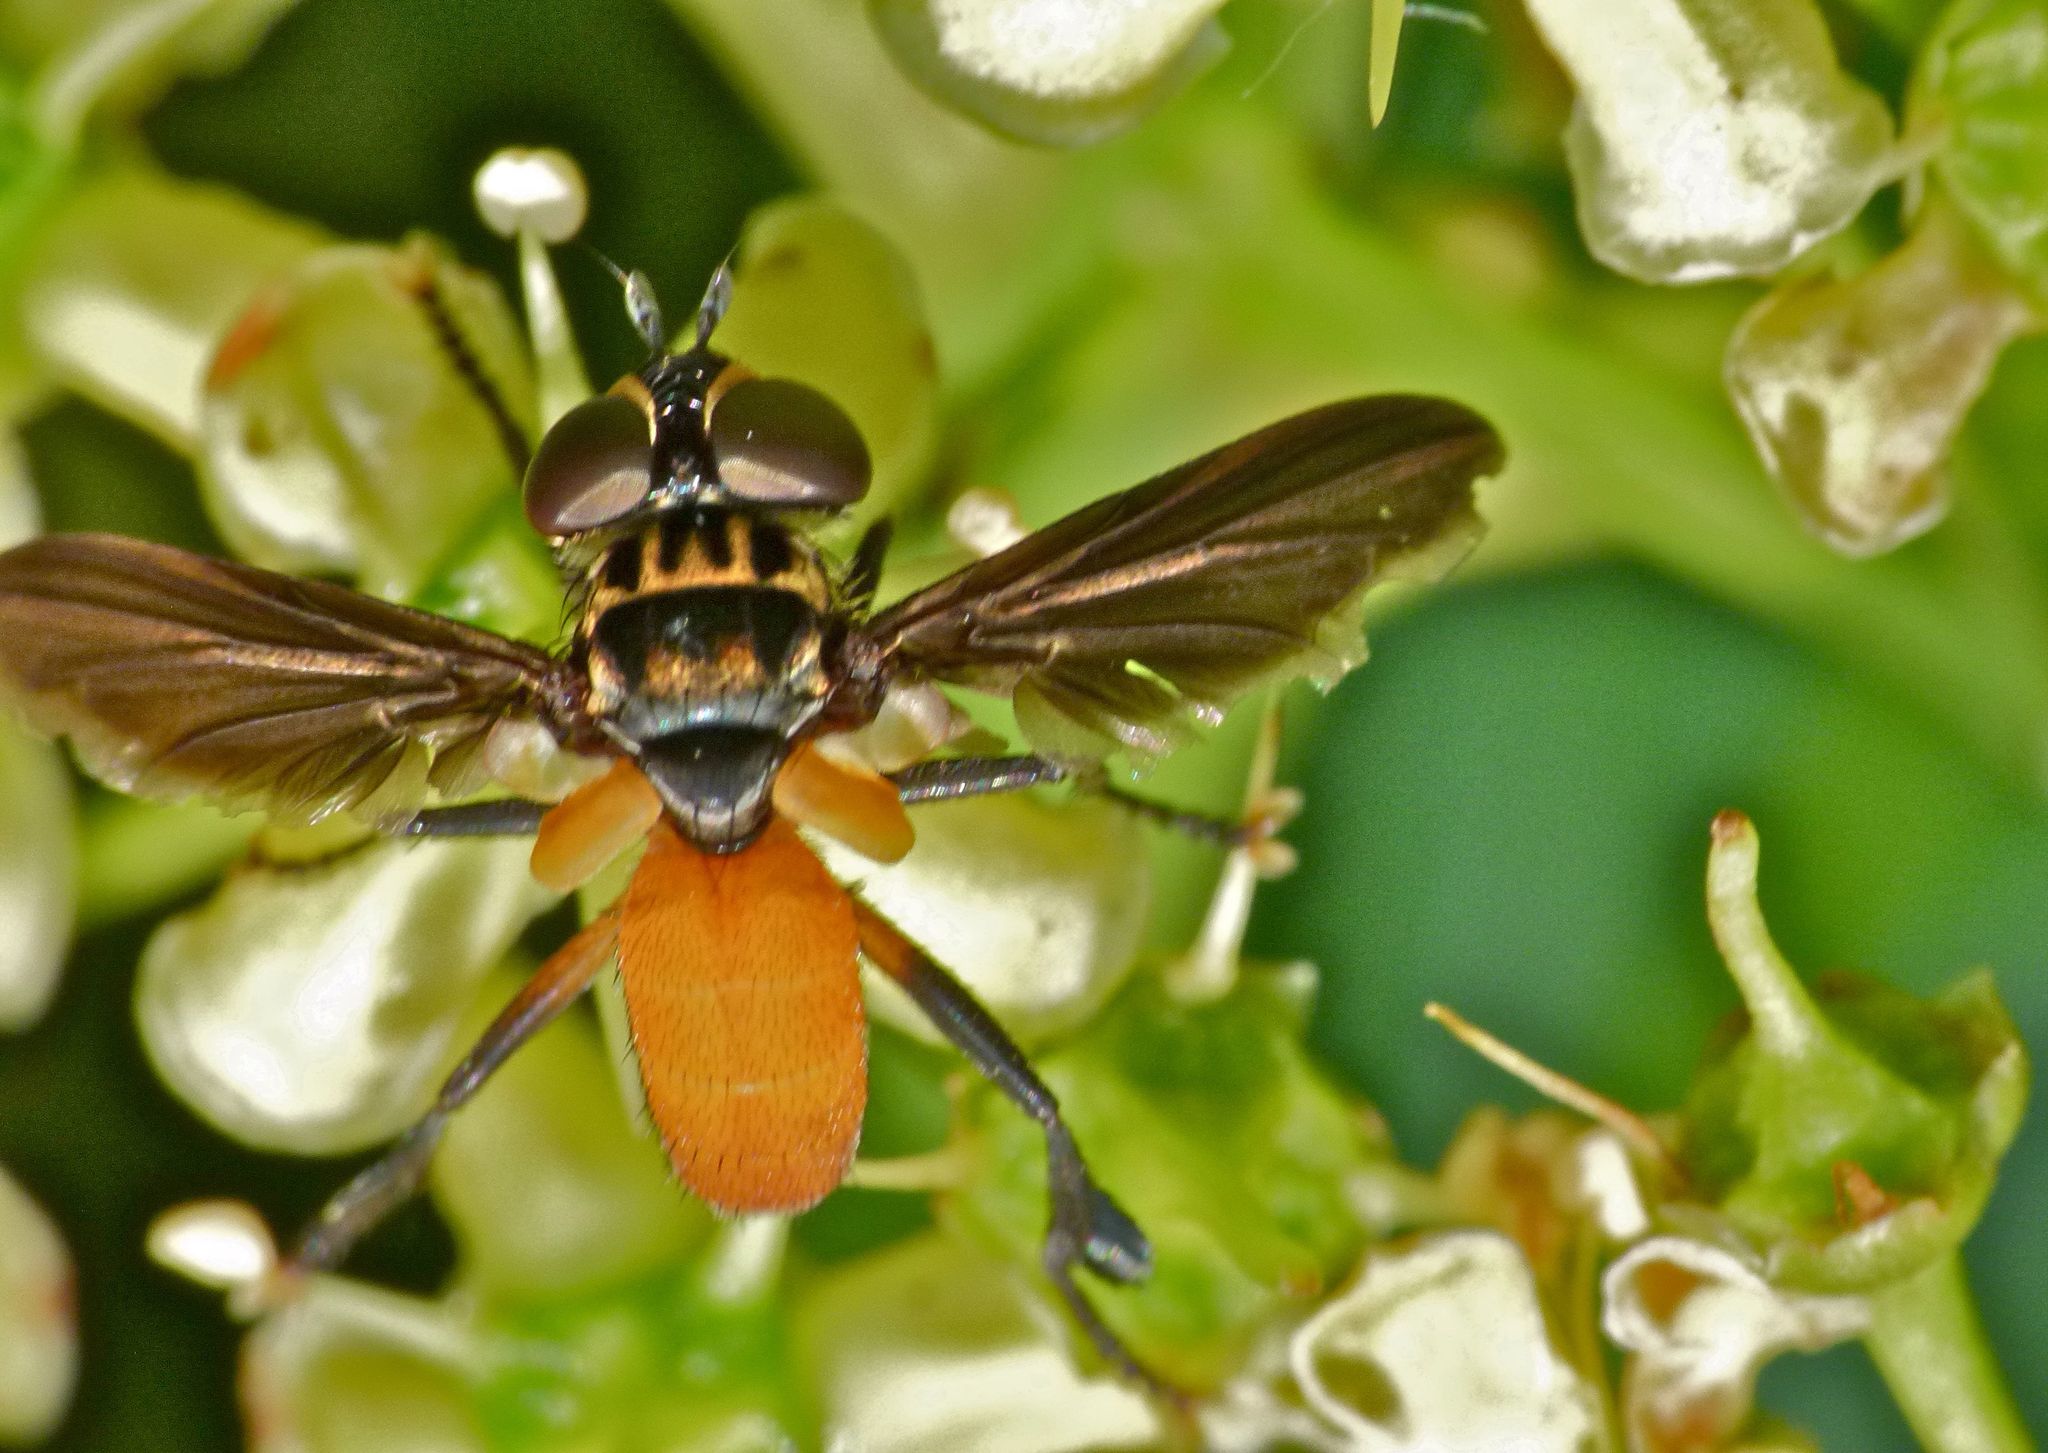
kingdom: Animalia
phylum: Arthropoda
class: Insecta
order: Diptera
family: Tachinidae
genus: Trichopoda
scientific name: Trichopoda pennipes
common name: Tachinid fly
